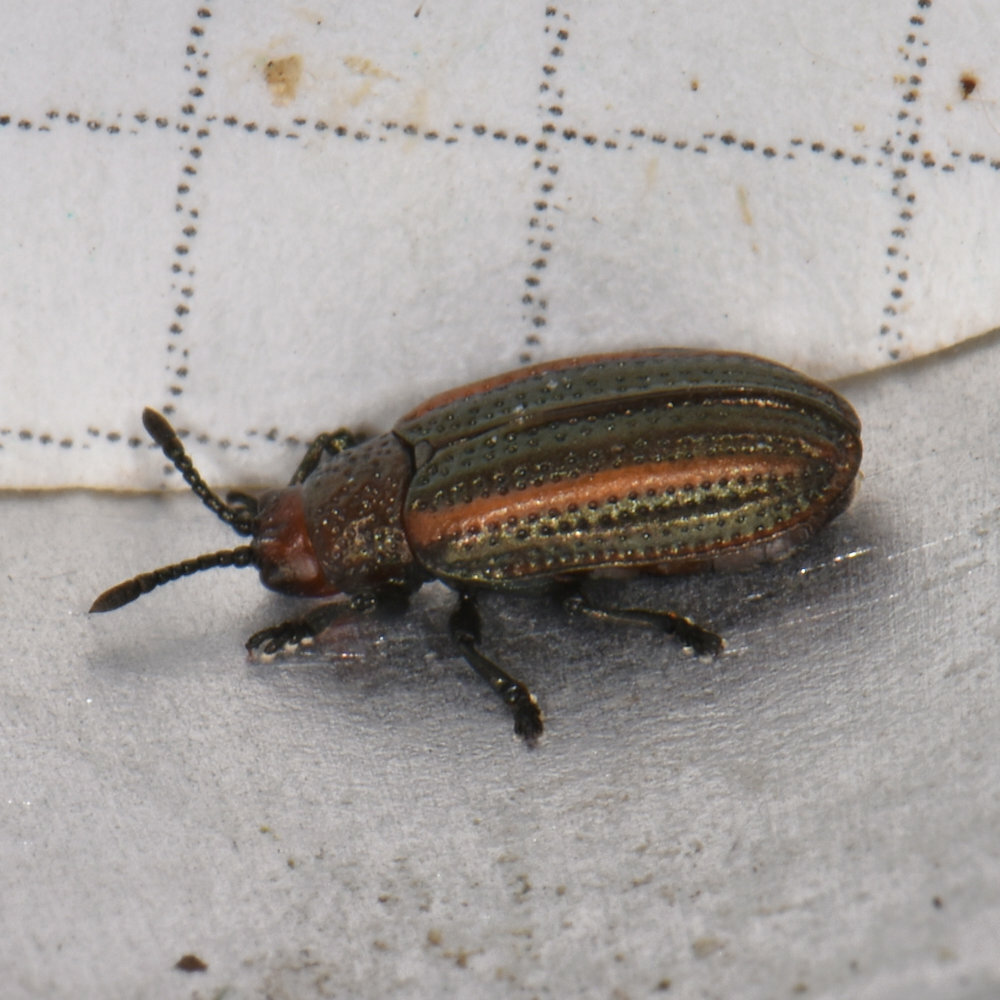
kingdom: Animalia
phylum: Arthropoda
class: Insecta
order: Coleoptera
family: Chrysomelidae
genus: Microrhopala
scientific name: Microrhopala vittata
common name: Goldenrod leaf miner beetle
